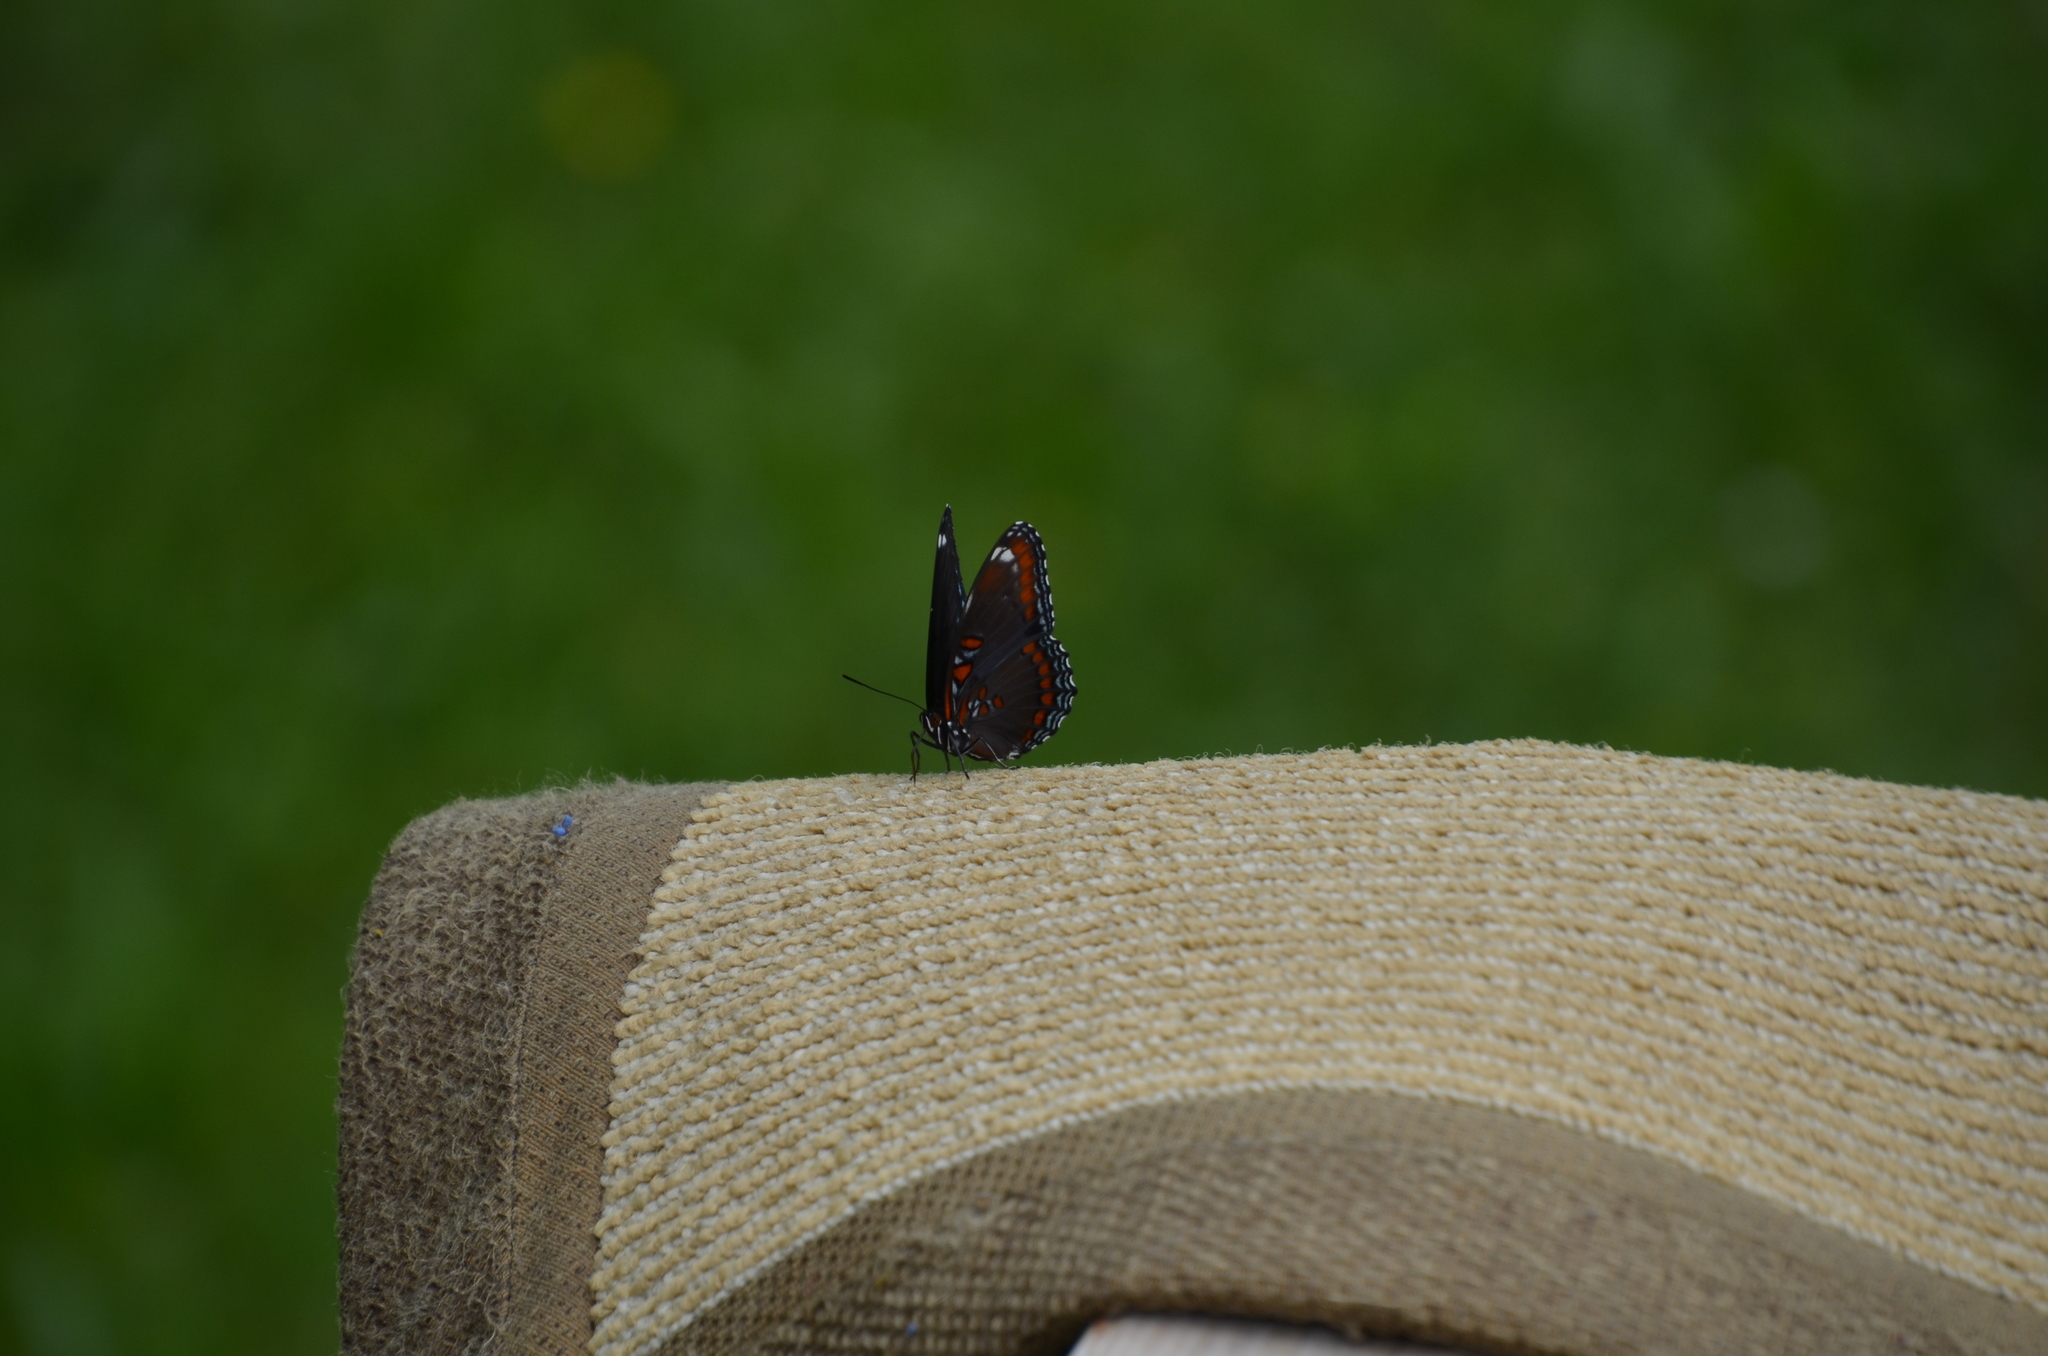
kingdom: Animalia
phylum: Arthropoda
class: Insecta
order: Lepidoptera
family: Nymphalidae
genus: Limenitis
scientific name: Limenitis astyanax
